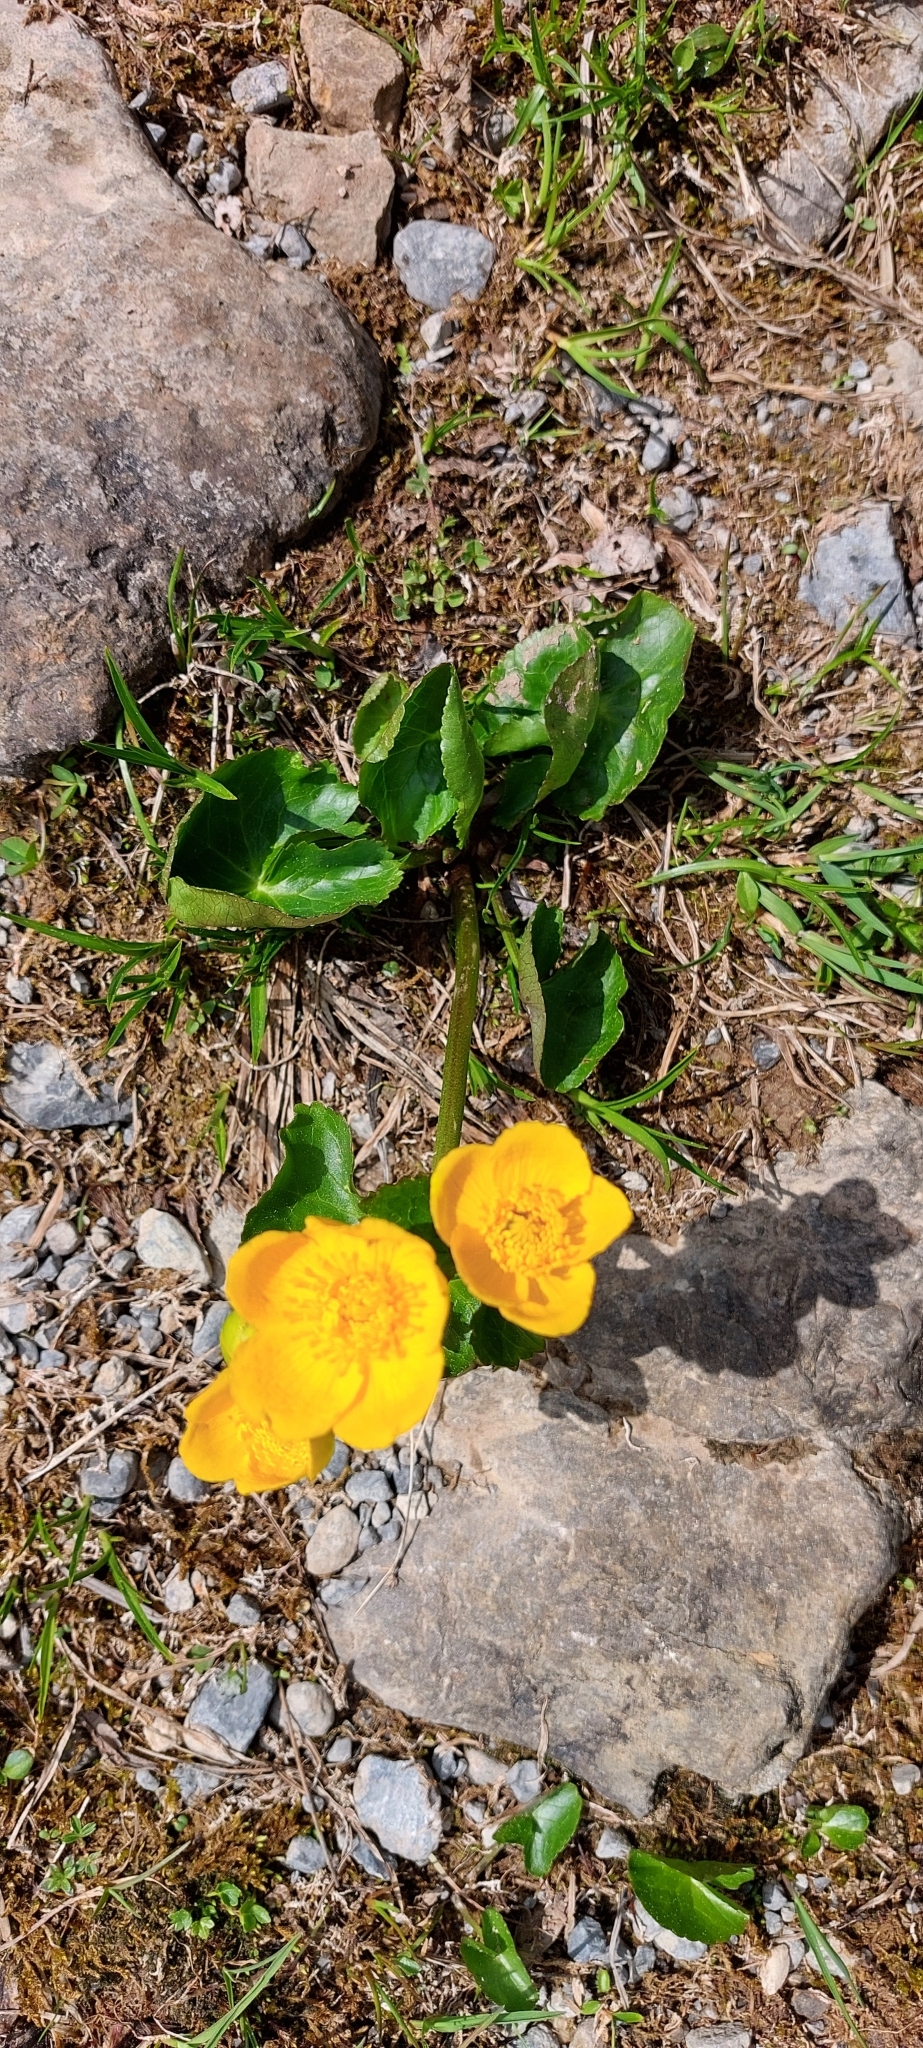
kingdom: Plantae
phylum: Tracheophyta
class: Magnoliopsida
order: Ranunculales
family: Ranunculaceae
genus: Caltha
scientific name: Caltha palustris
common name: Marsh marigold
